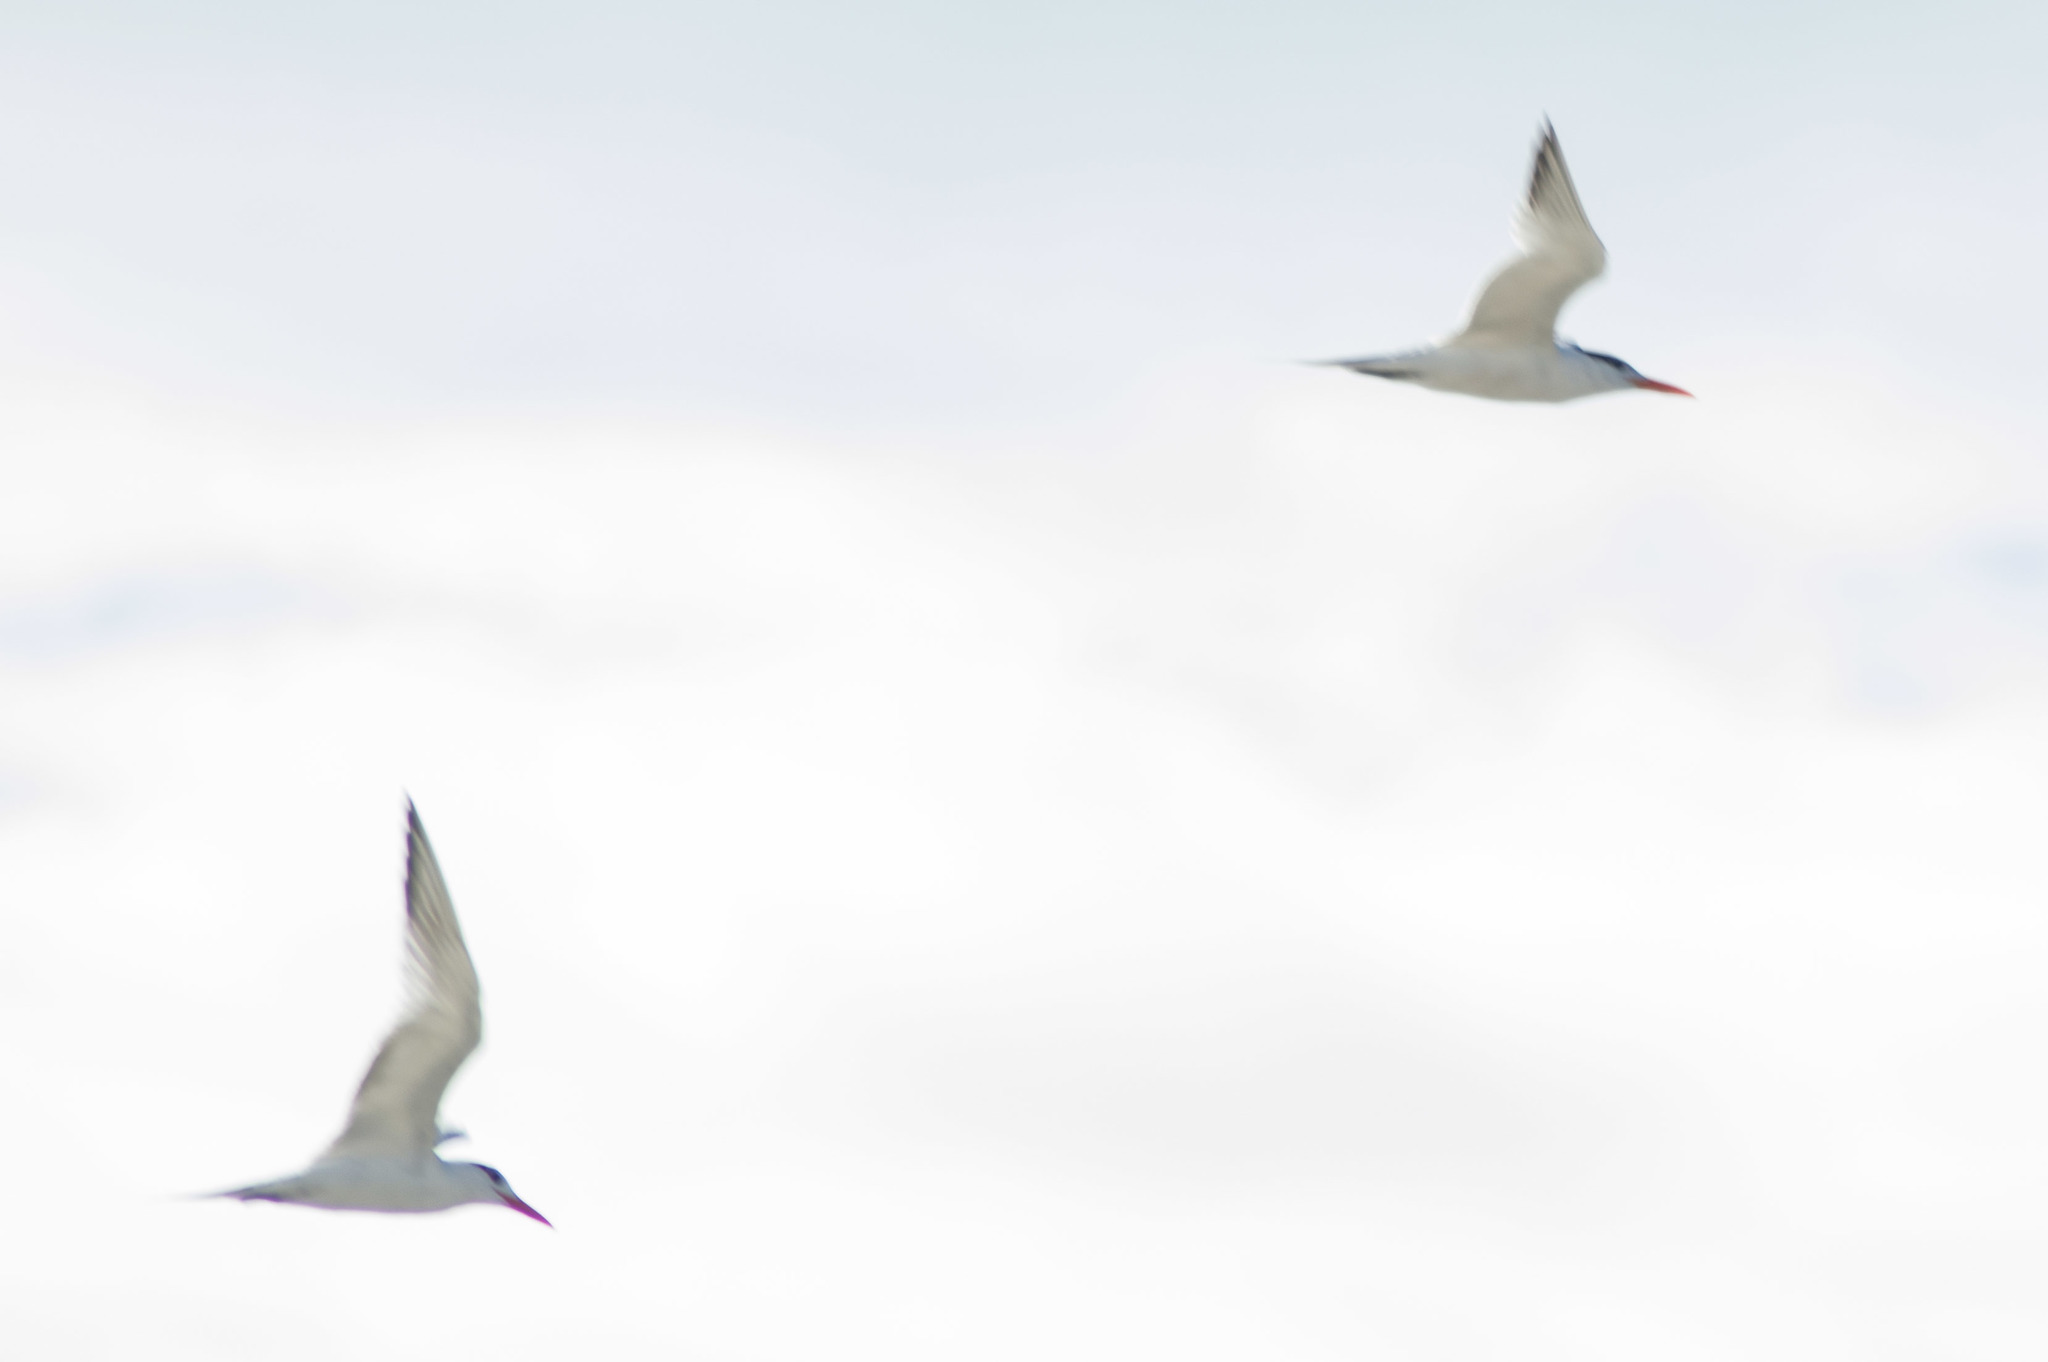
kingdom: Animalia
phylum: Chordata
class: Aves
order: Charadriiformes
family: Laridae
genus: Thalasseus
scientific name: Thalasseus maximus
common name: Royal tern
